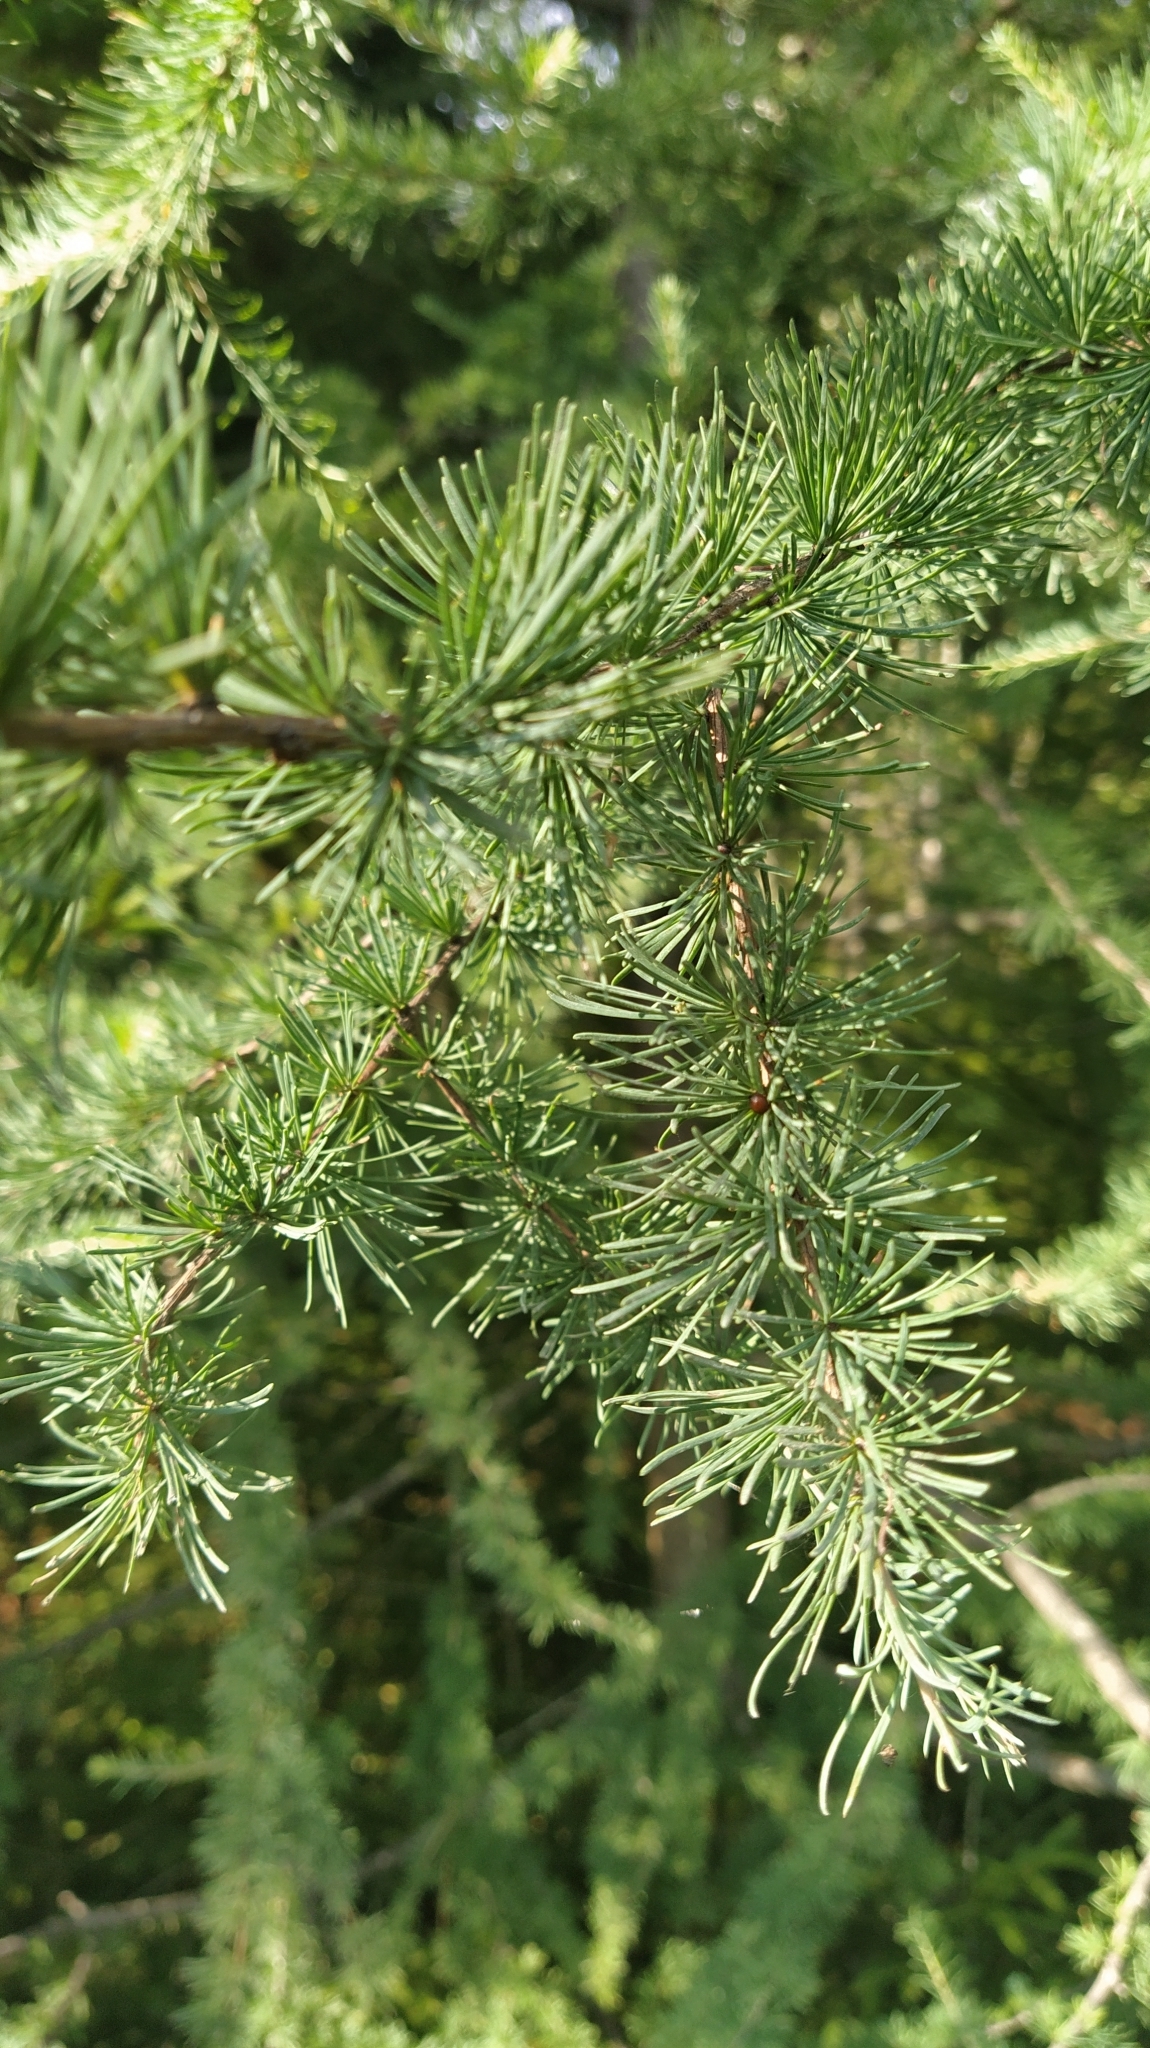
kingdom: Plantae
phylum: Tracheophyta
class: Pinopsida
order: Pinales
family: Pinaceae
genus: Larix
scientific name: Larix laricina
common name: American larch
